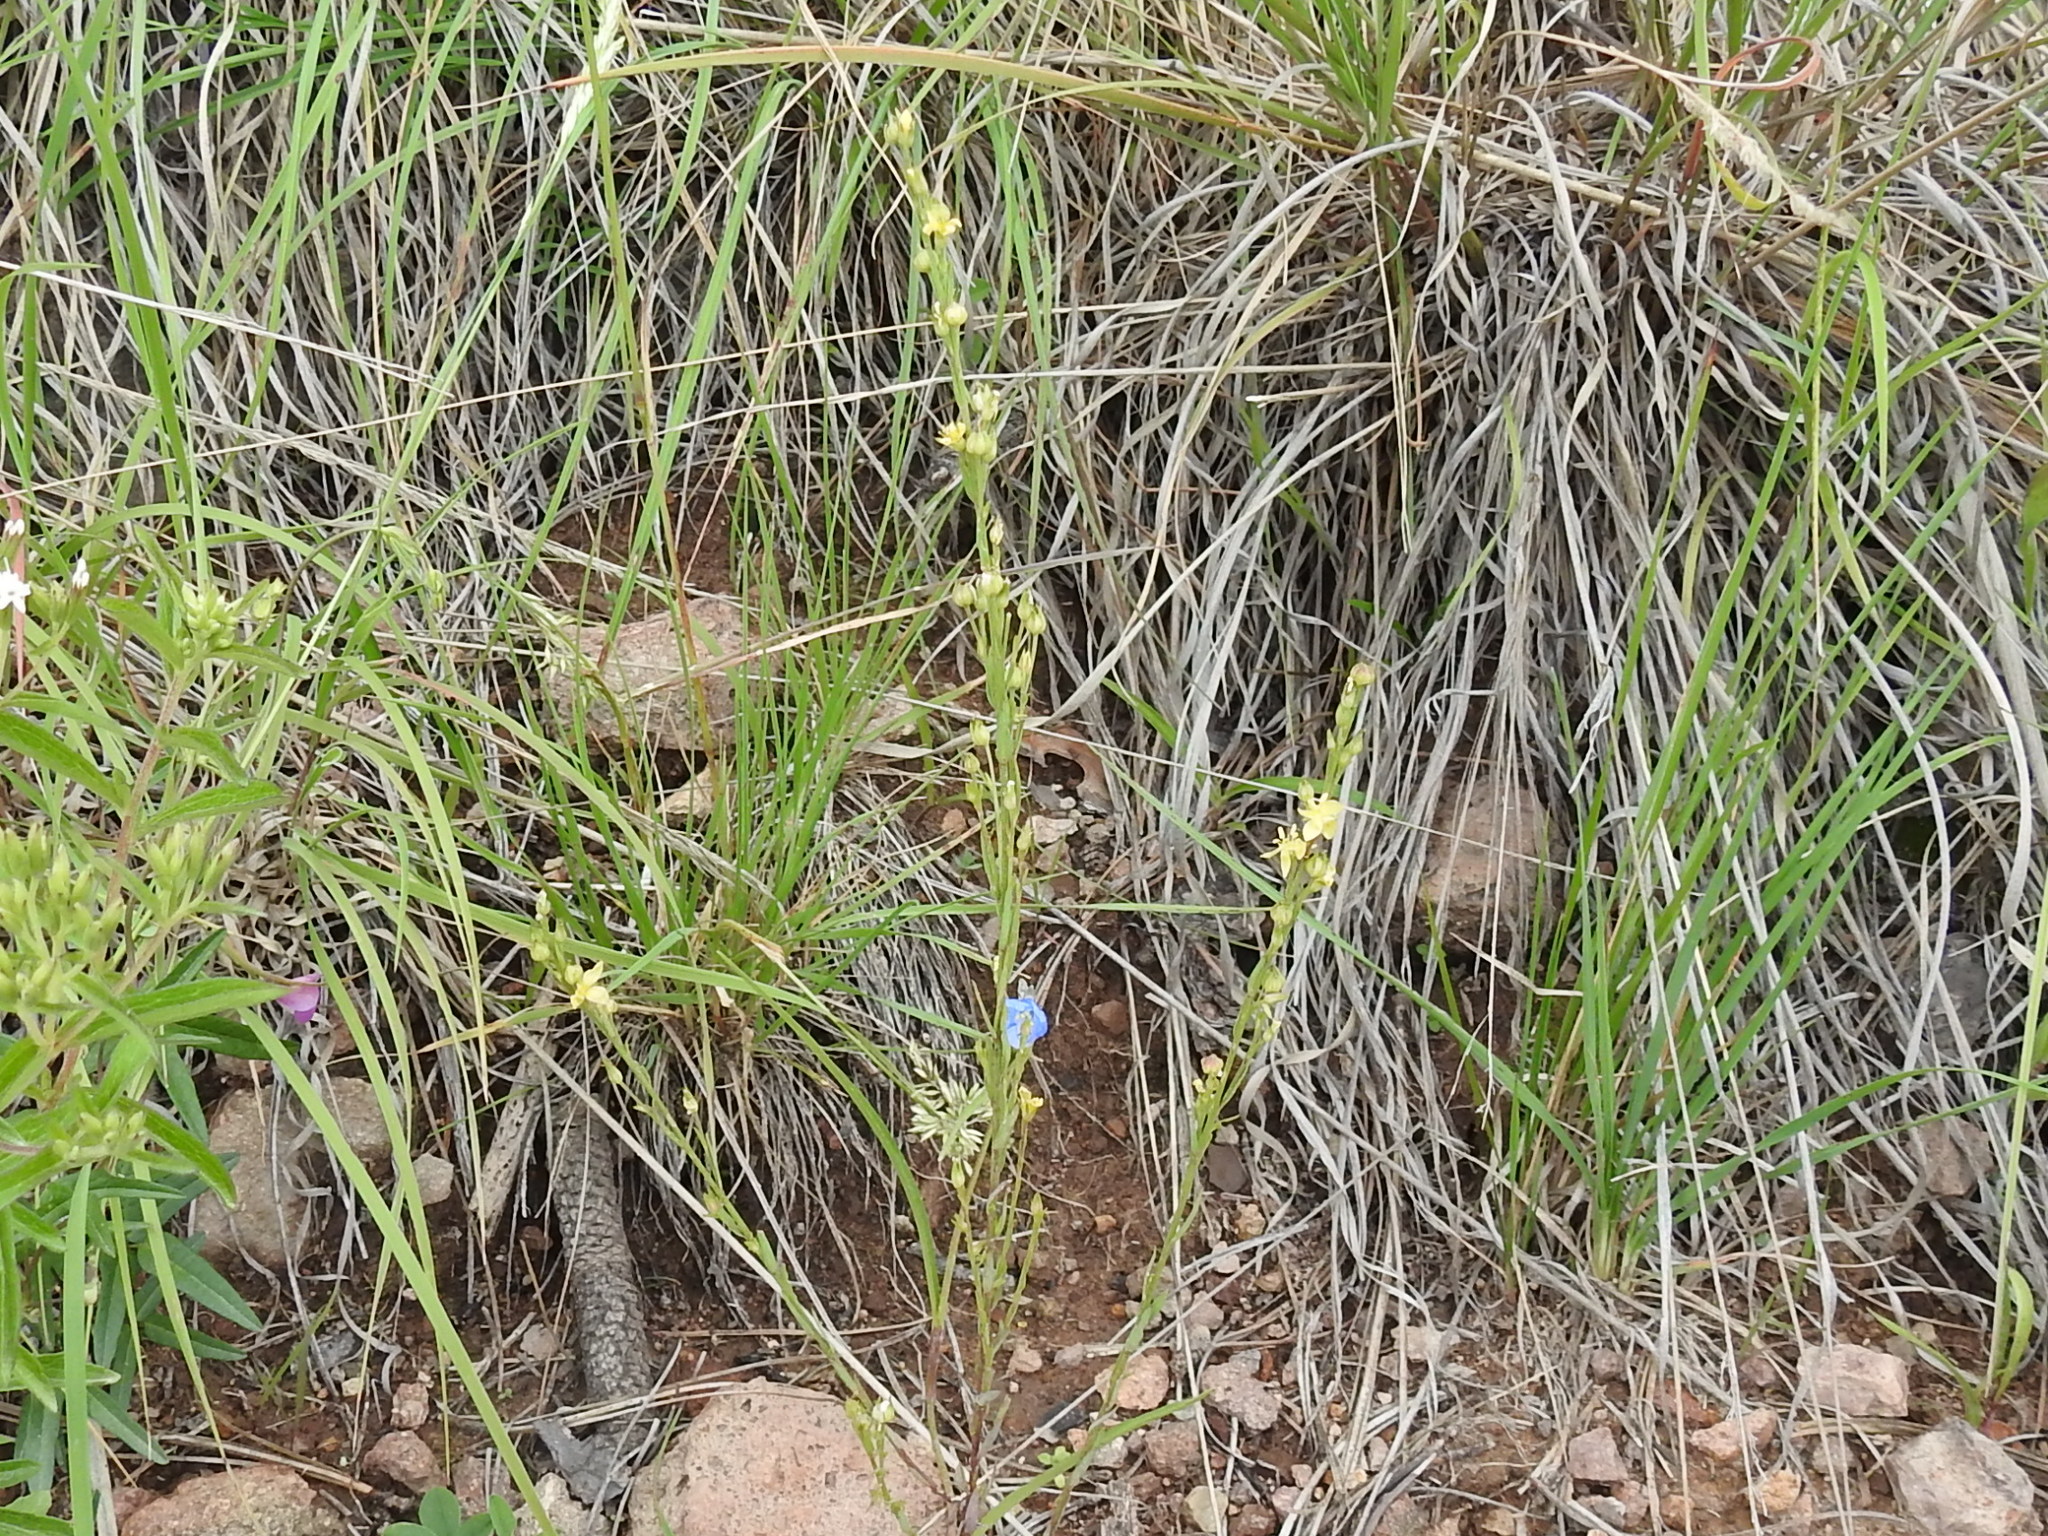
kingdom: Plantae
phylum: Tracheophyta
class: Magnoliopsida
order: Malpighiales
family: Linaceae
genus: Linum
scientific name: Linum neomexicanum
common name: New mexico yellow flax
